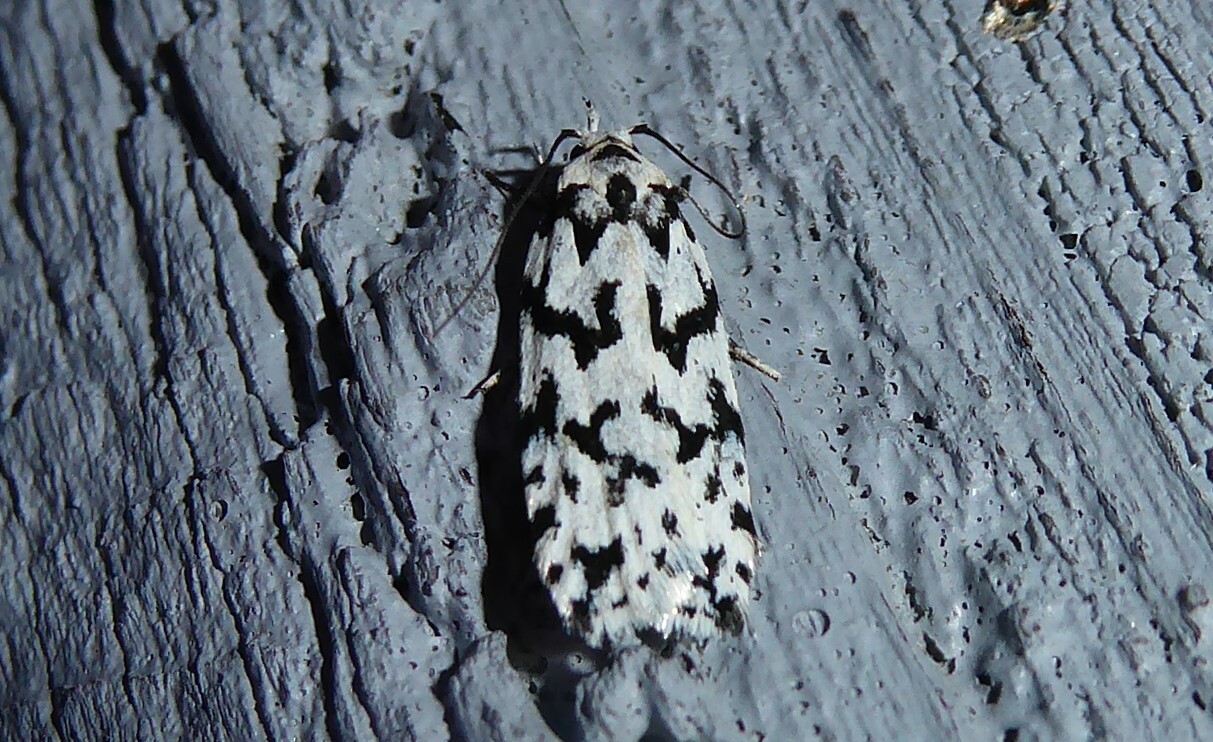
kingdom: Animalia
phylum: Arthropoda
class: Insecta
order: Lepidoptera
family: Oecophoridae
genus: Izatha
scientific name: Izatha katadiktya
